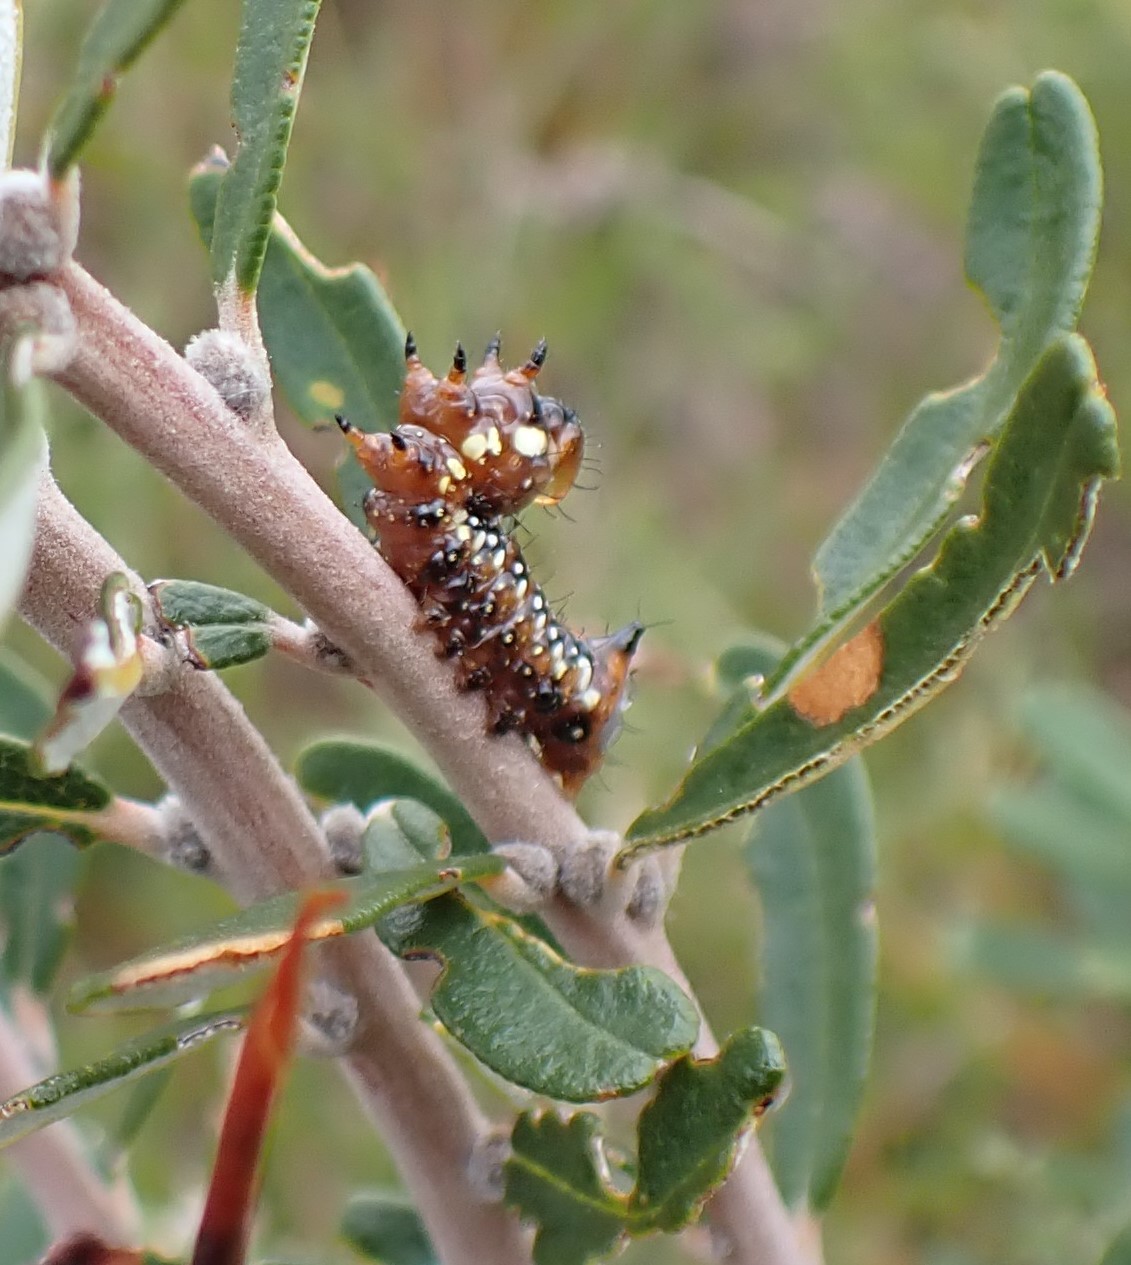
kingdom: Animalia
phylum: Arthropoda
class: Insecta
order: Lepidoptera
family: Notodontidae
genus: Psalidostetha
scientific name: Psalidostetha banksiae
